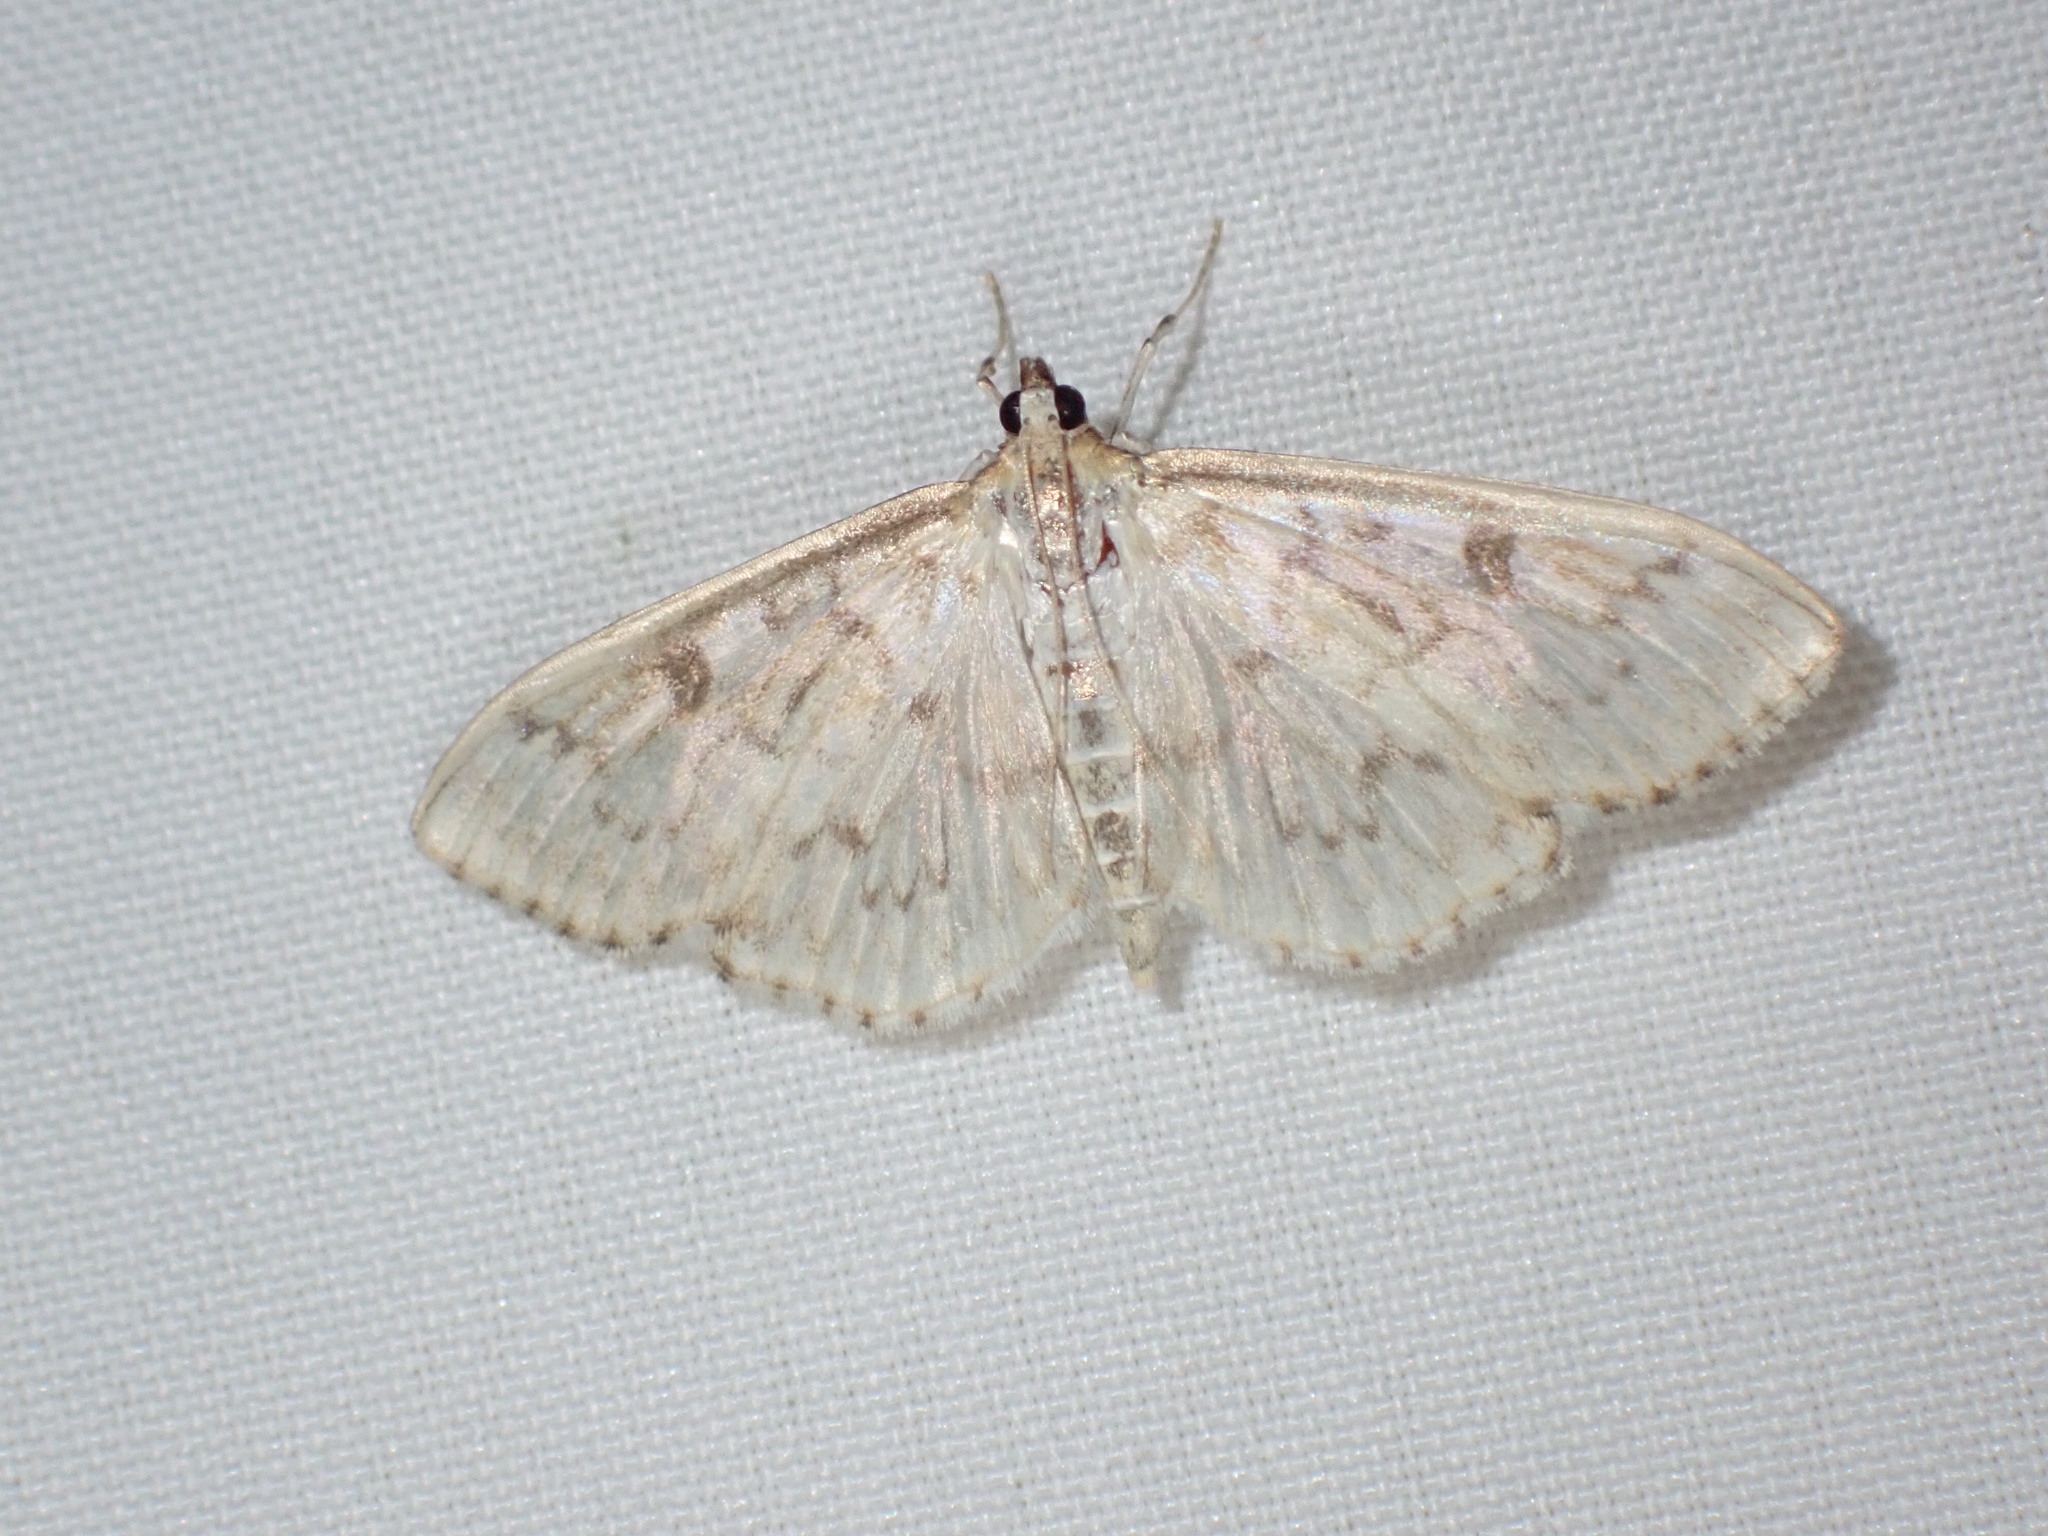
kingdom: Animalia
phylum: Arthropoda
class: Insecta
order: Lepidoptera
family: Crambidae
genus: Herpetogramma
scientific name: Herpetogramma aquilonalis
